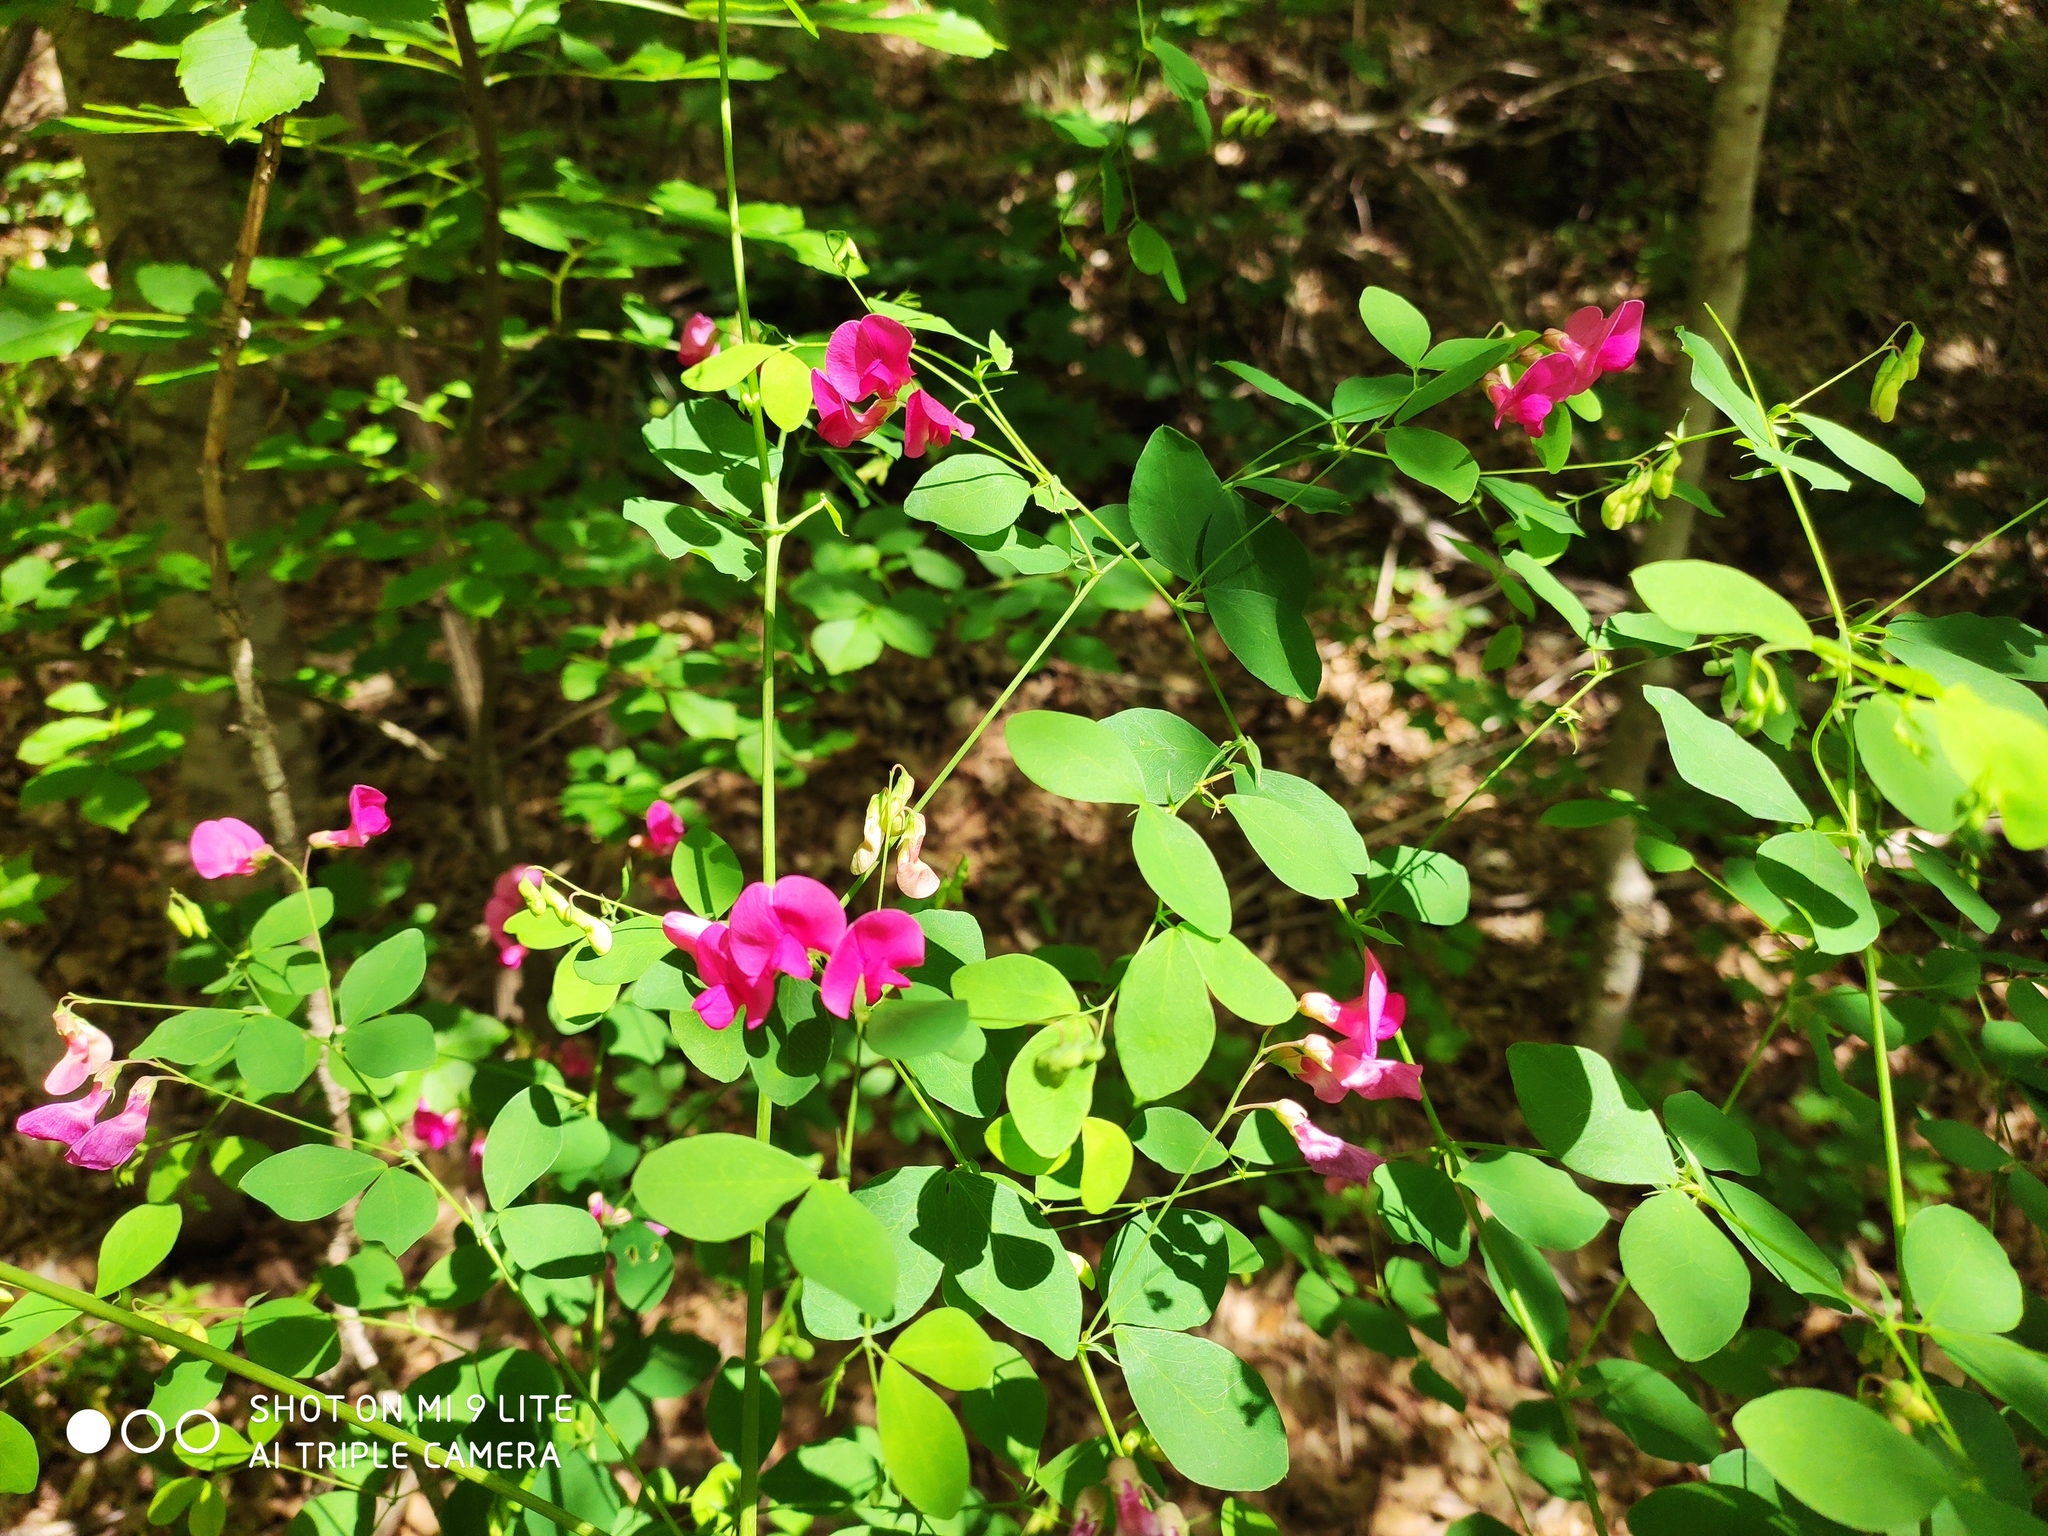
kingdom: Plantae
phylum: Tracheophyta
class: Magnoliopsida
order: Fabales
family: Fabaceae
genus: Lathyrus
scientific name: Lathyrus roseus
